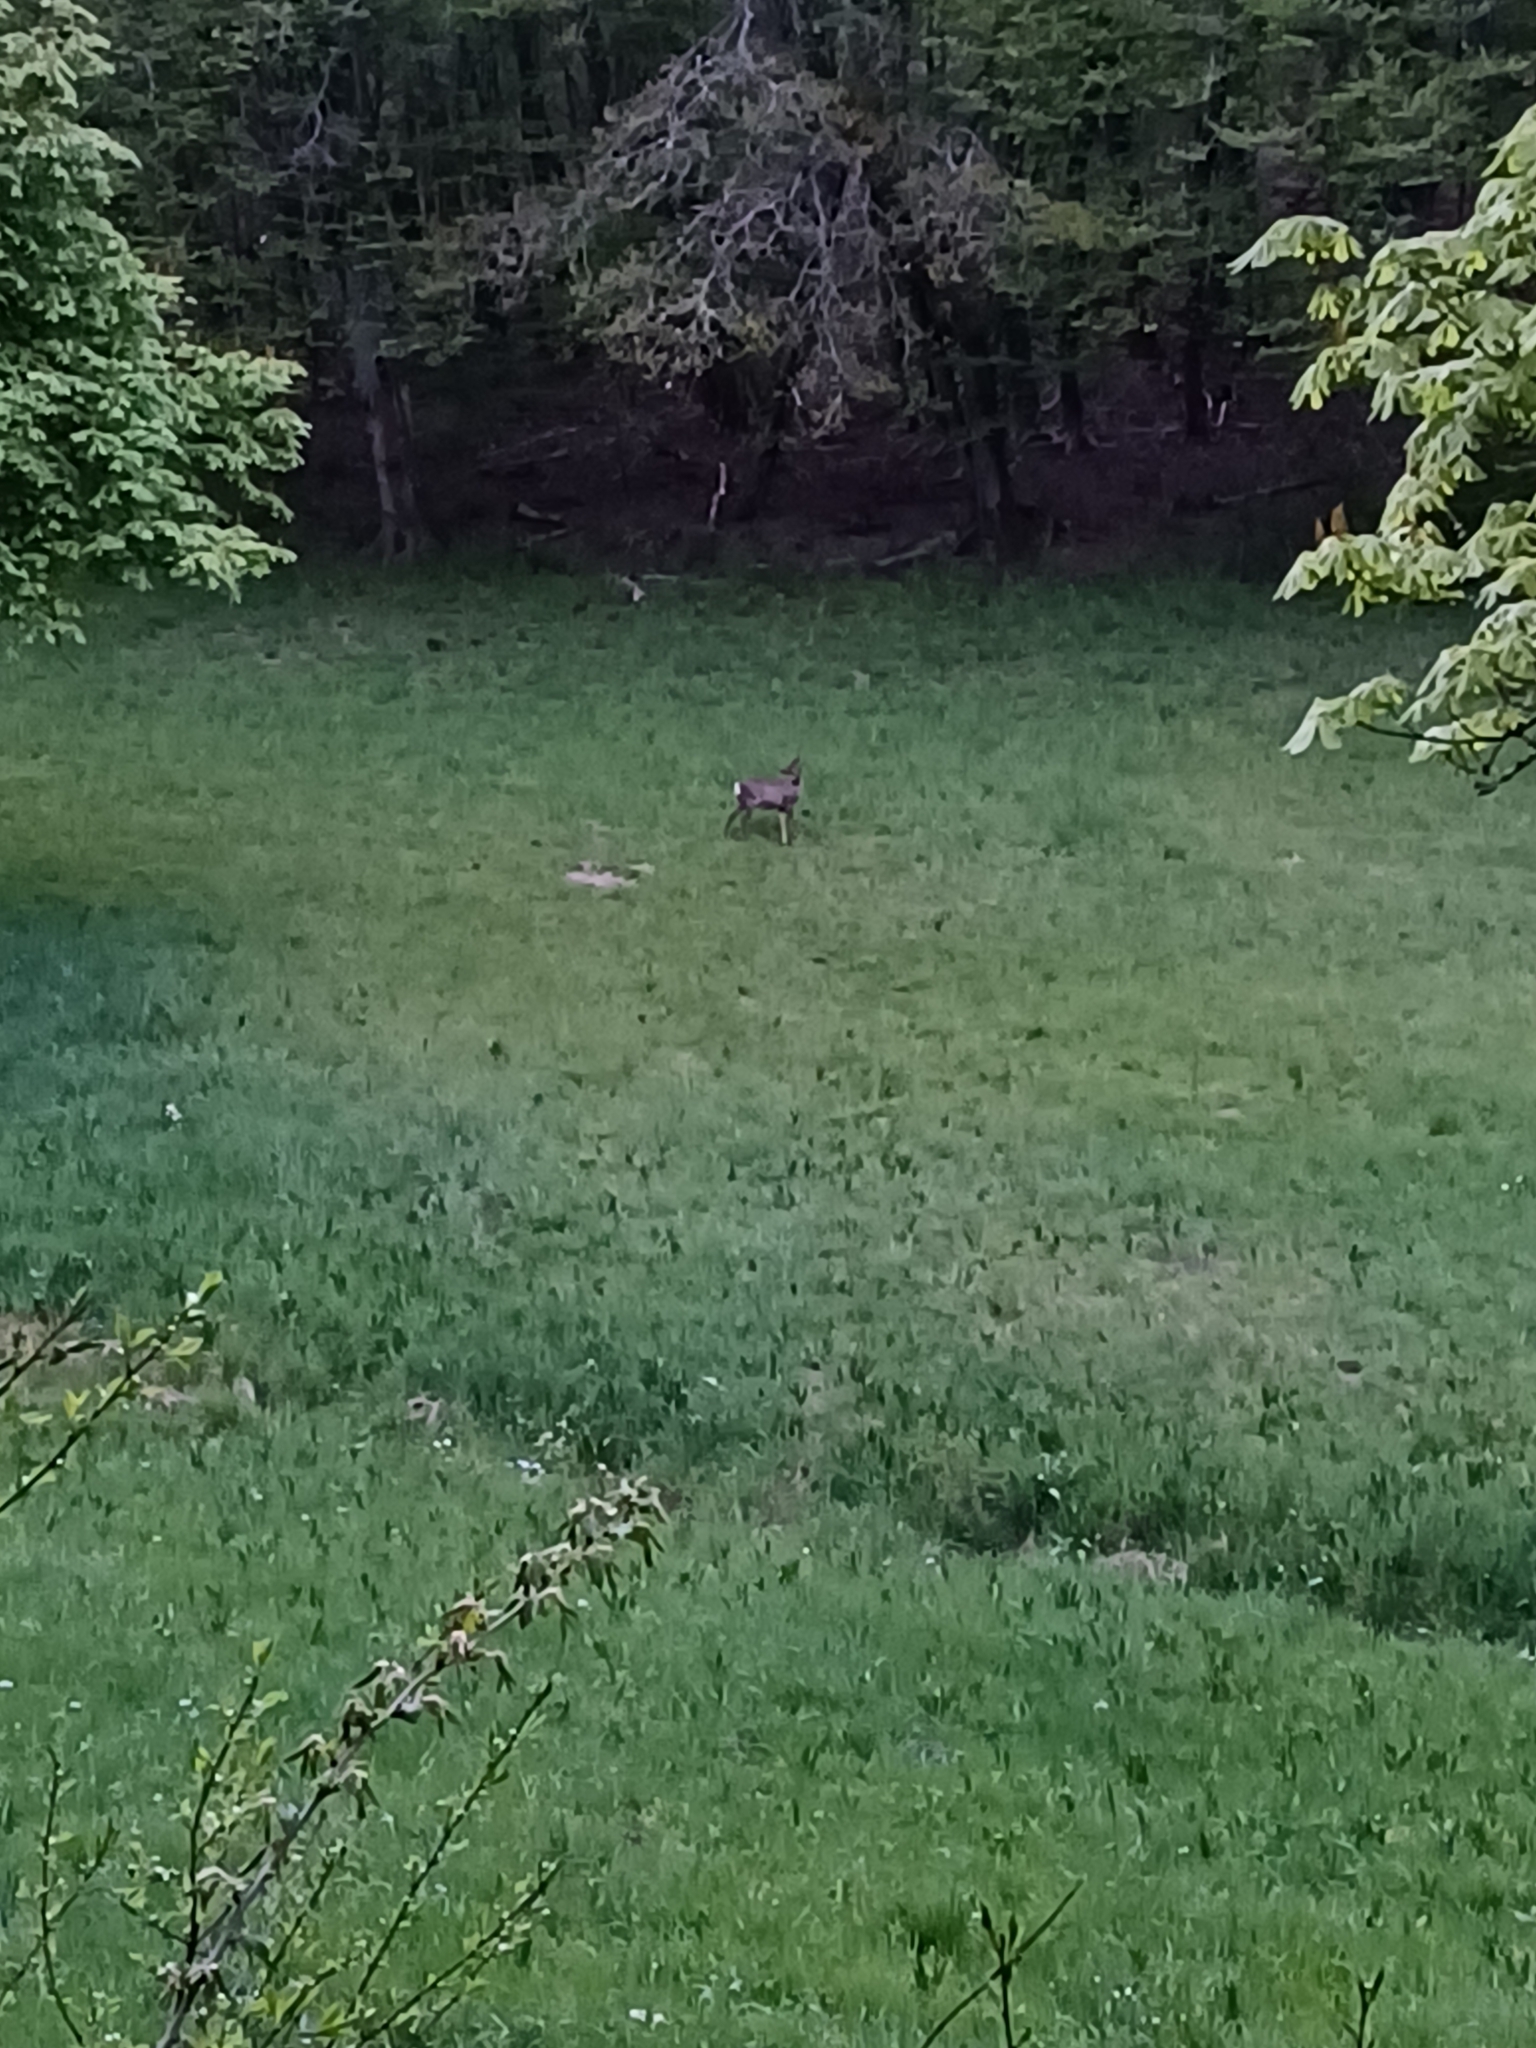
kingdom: Animalia
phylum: Chordata
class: Mammalia
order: Artiodactyla
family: Cervidae
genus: Capreolus
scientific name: Capreolus capreolus
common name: Western roe deer
